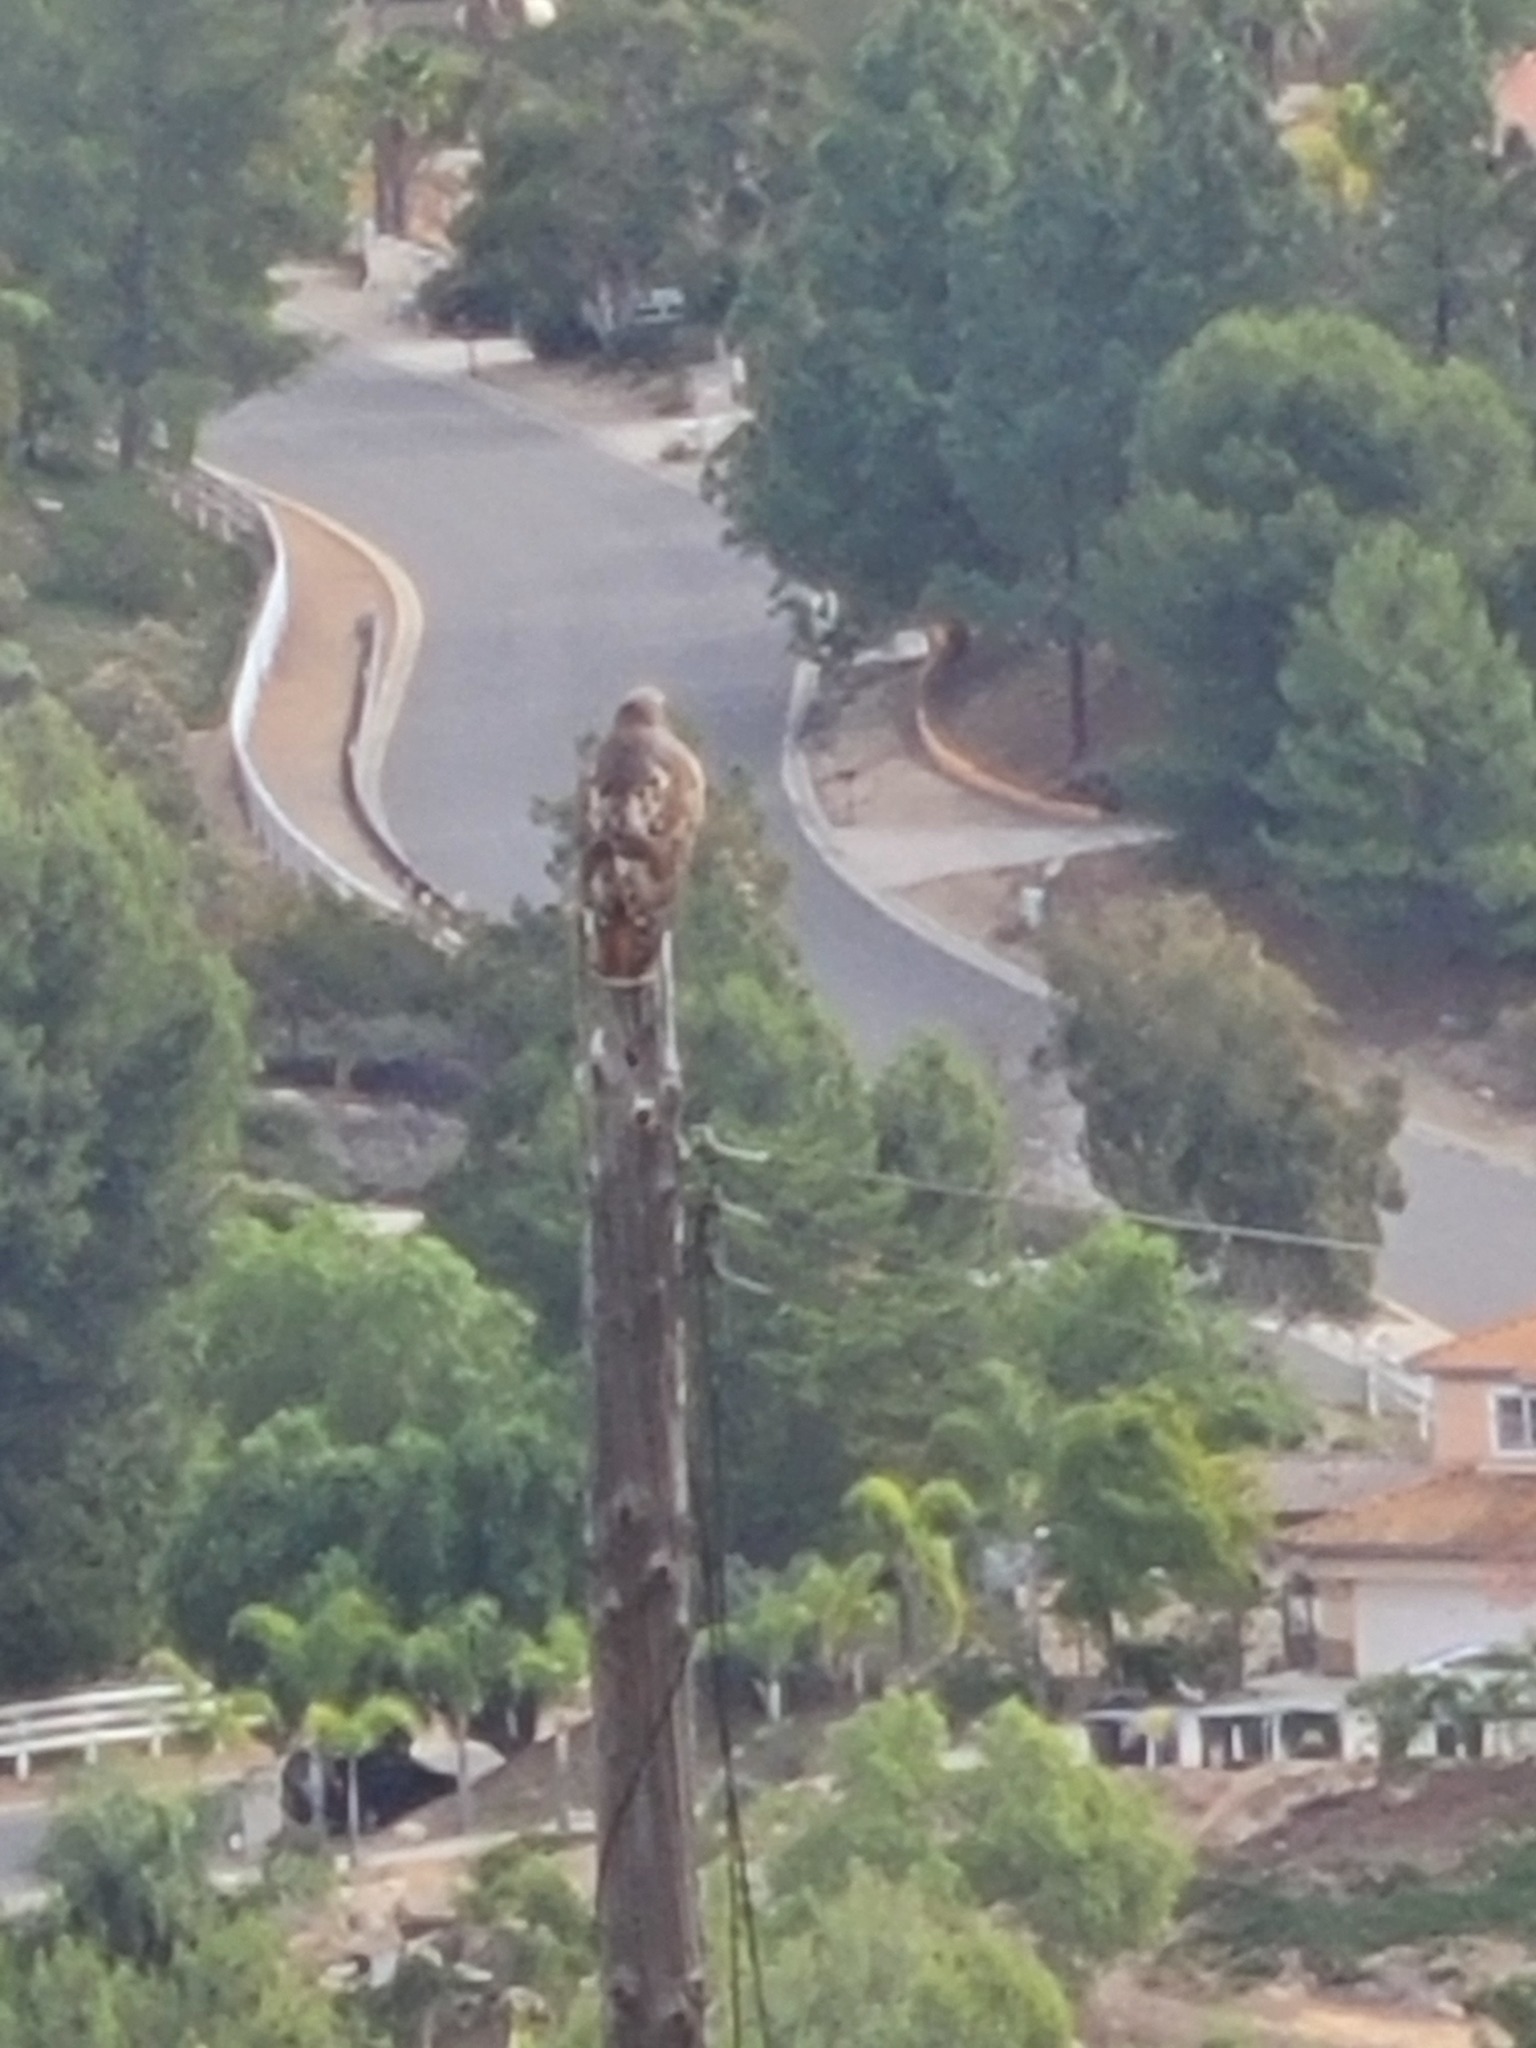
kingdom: Animalia
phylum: Chordata
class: Aves
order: Accipitriformes
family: Accipitridae
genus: Buteo
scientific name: Buteo jamaicensis
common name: Red-tailed hawk
